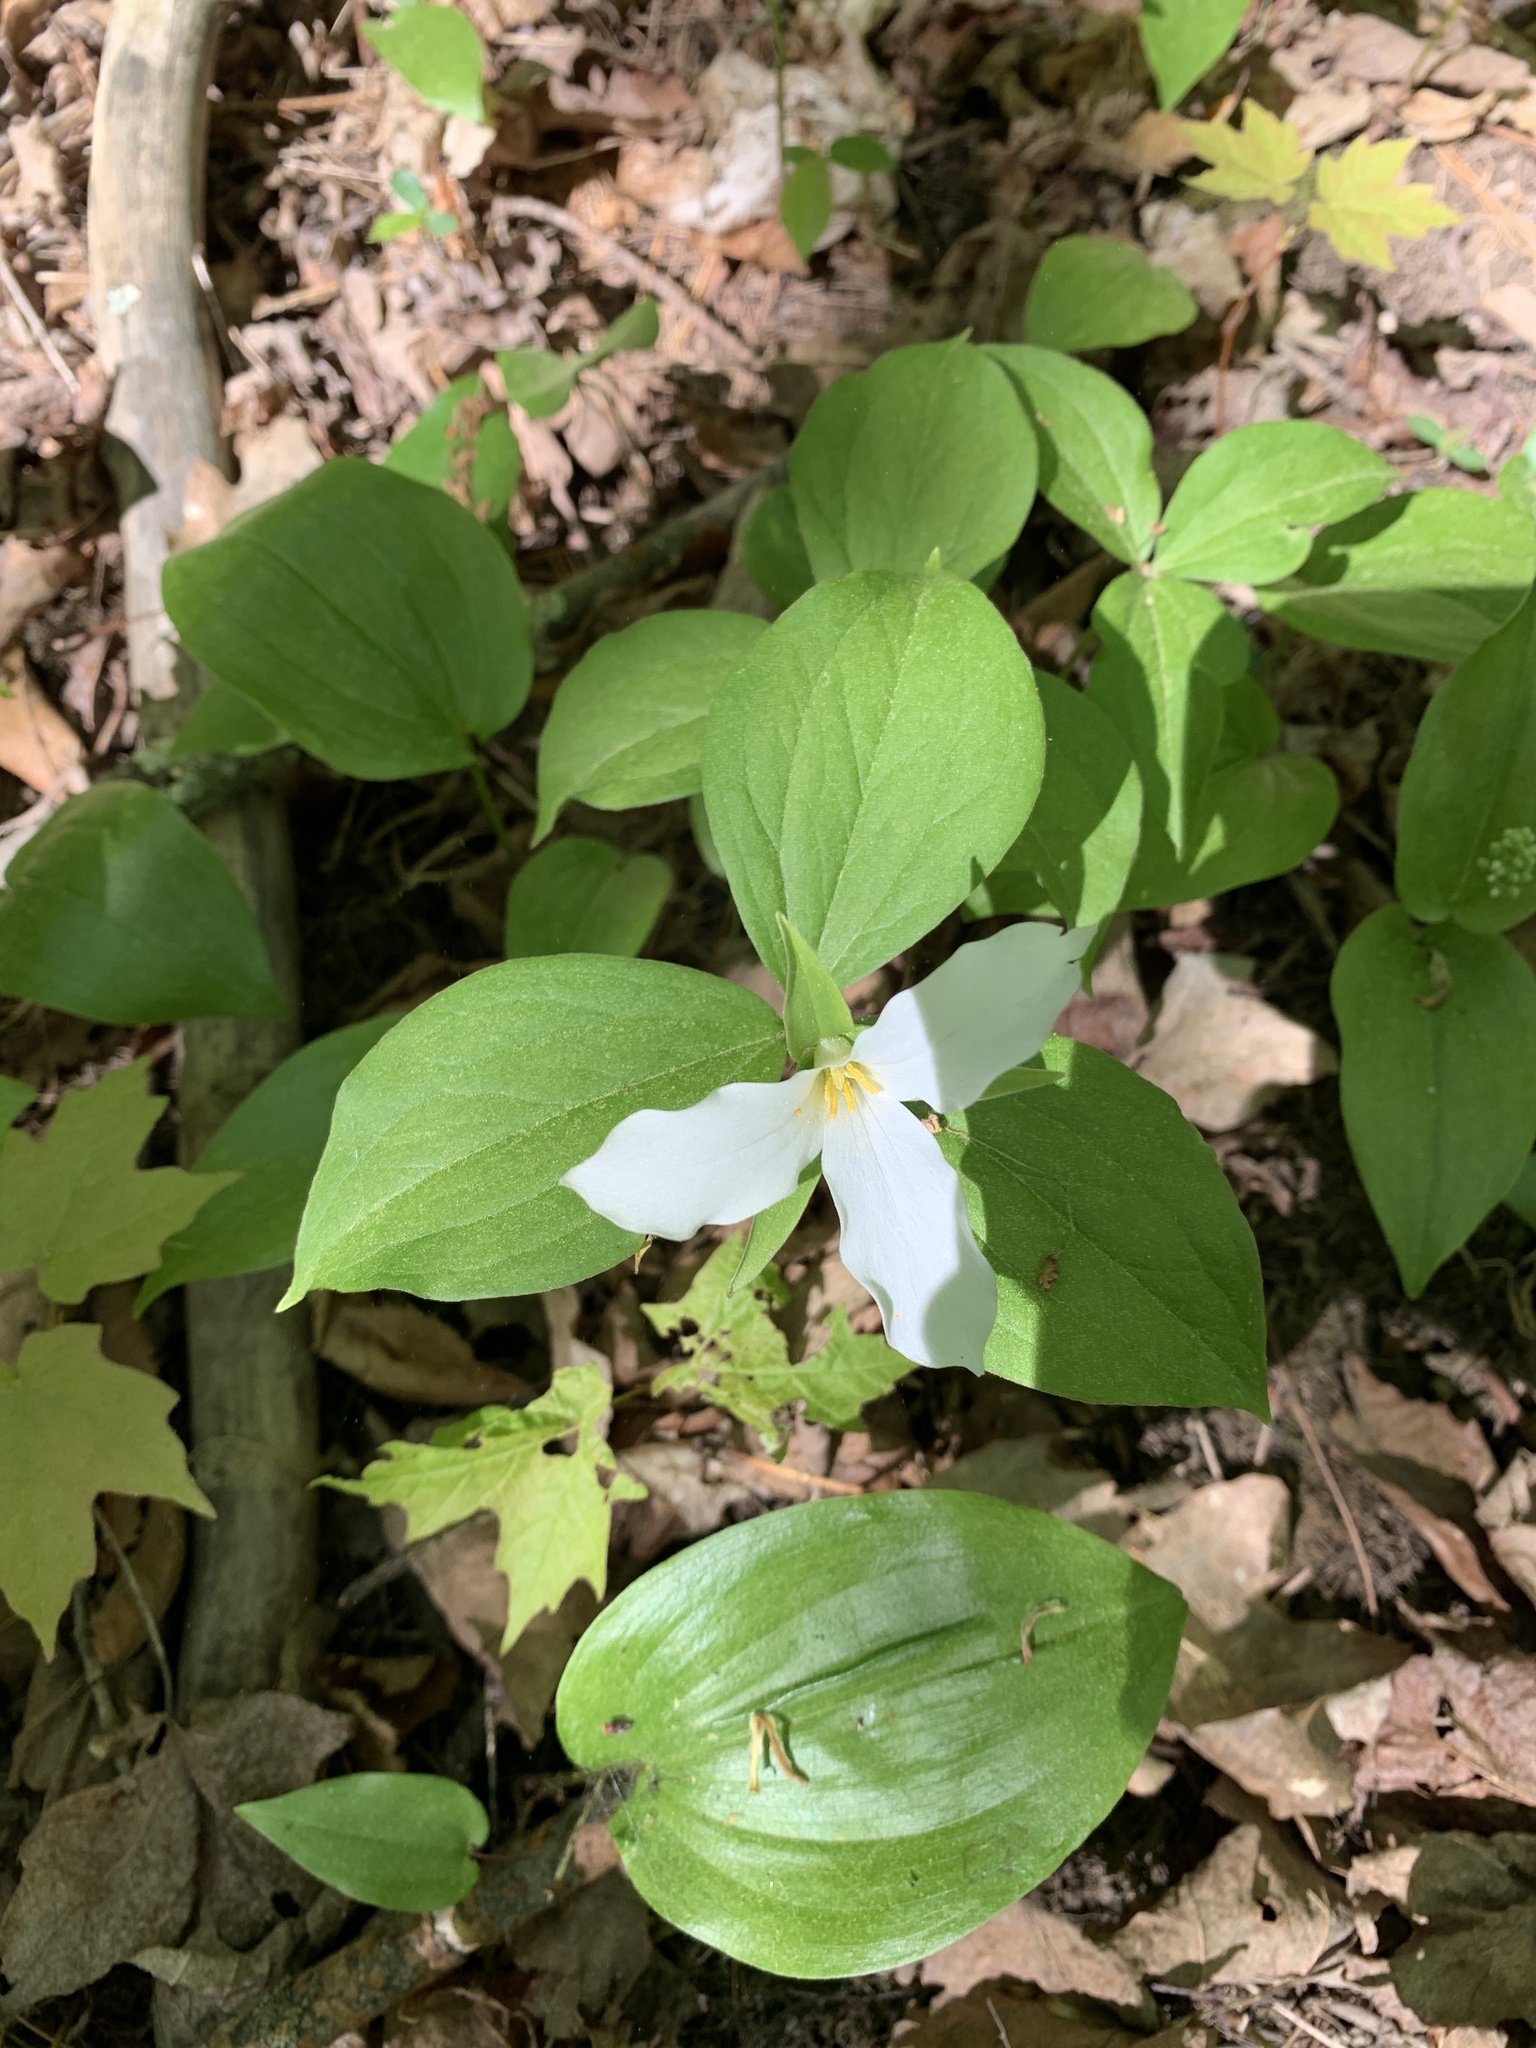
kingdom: Plantae
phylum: Tracheophyta
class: Liliopsida
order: Liliales
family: Melanthiaceae
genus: Trillium
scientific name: Trillium grandiflorum
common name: Great white trillium
